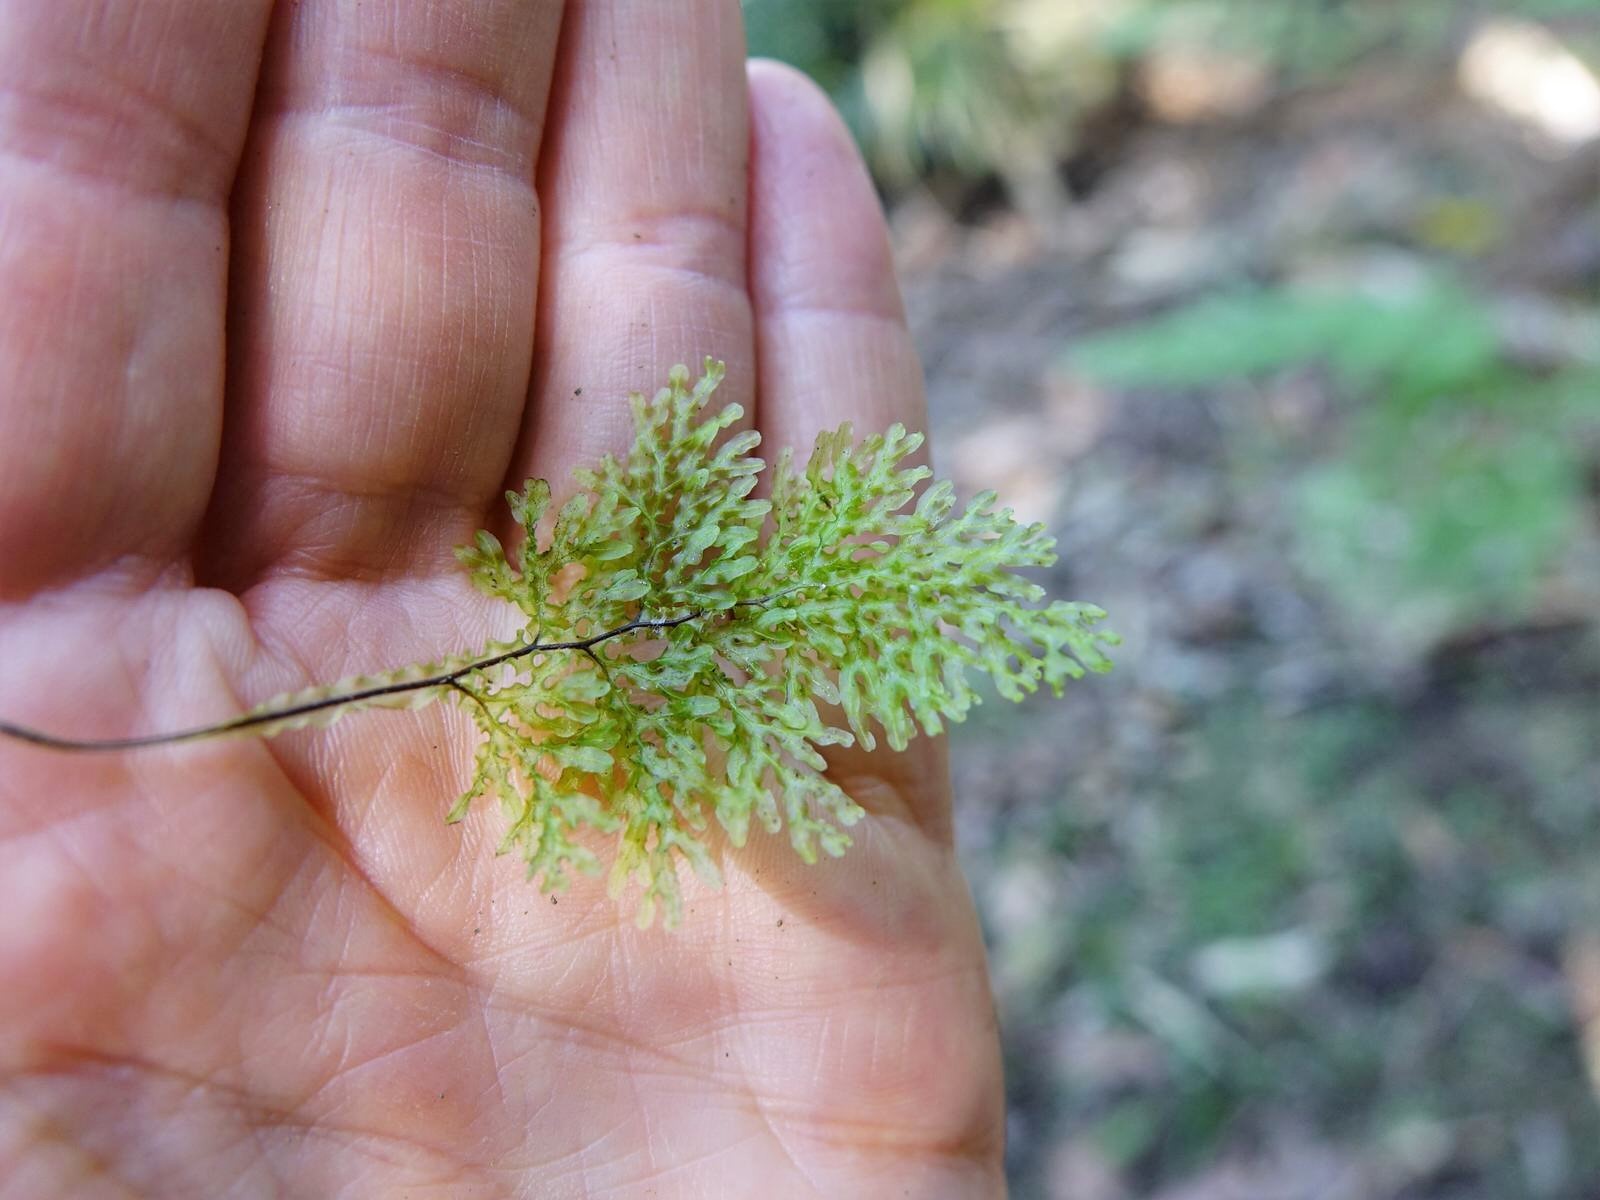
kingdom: Plantae
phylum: Tracheophyta
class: Polypodiopsida
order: Hymenophyllales
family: Hymenophyllaceae
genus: Hymenophyllum
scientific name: Hymenophyllum flexuosum
